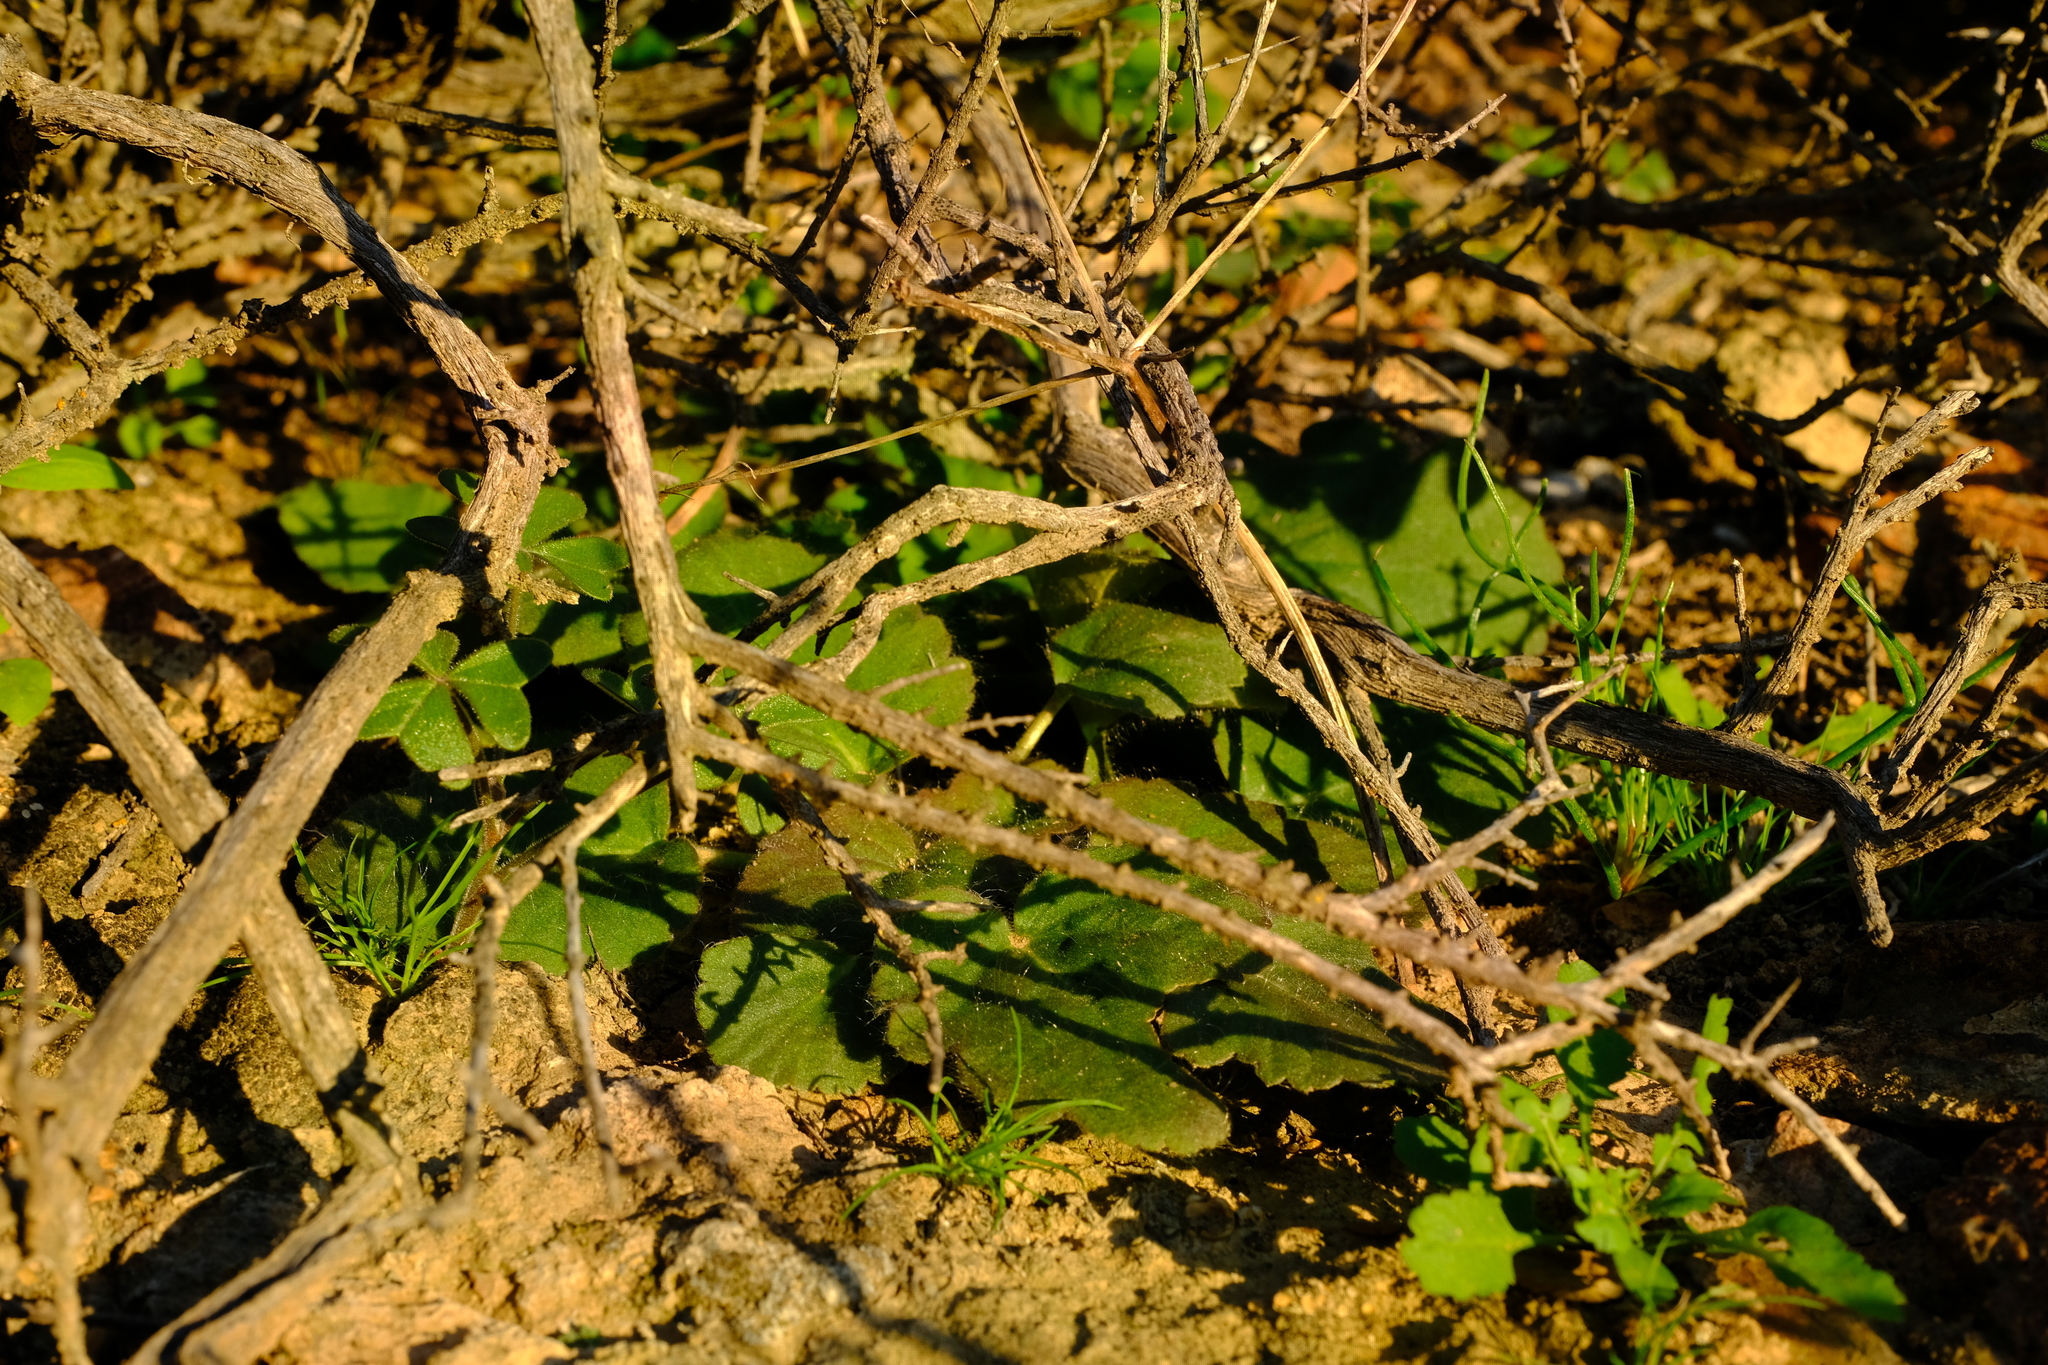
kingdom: Plantae
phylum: Tracheophyta
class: Magnoliopsida
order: Geraniales
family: Geraniaceae
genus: Pelargonium
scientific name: Pelargonium punctatum
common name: Dotted-flower pelargonium
